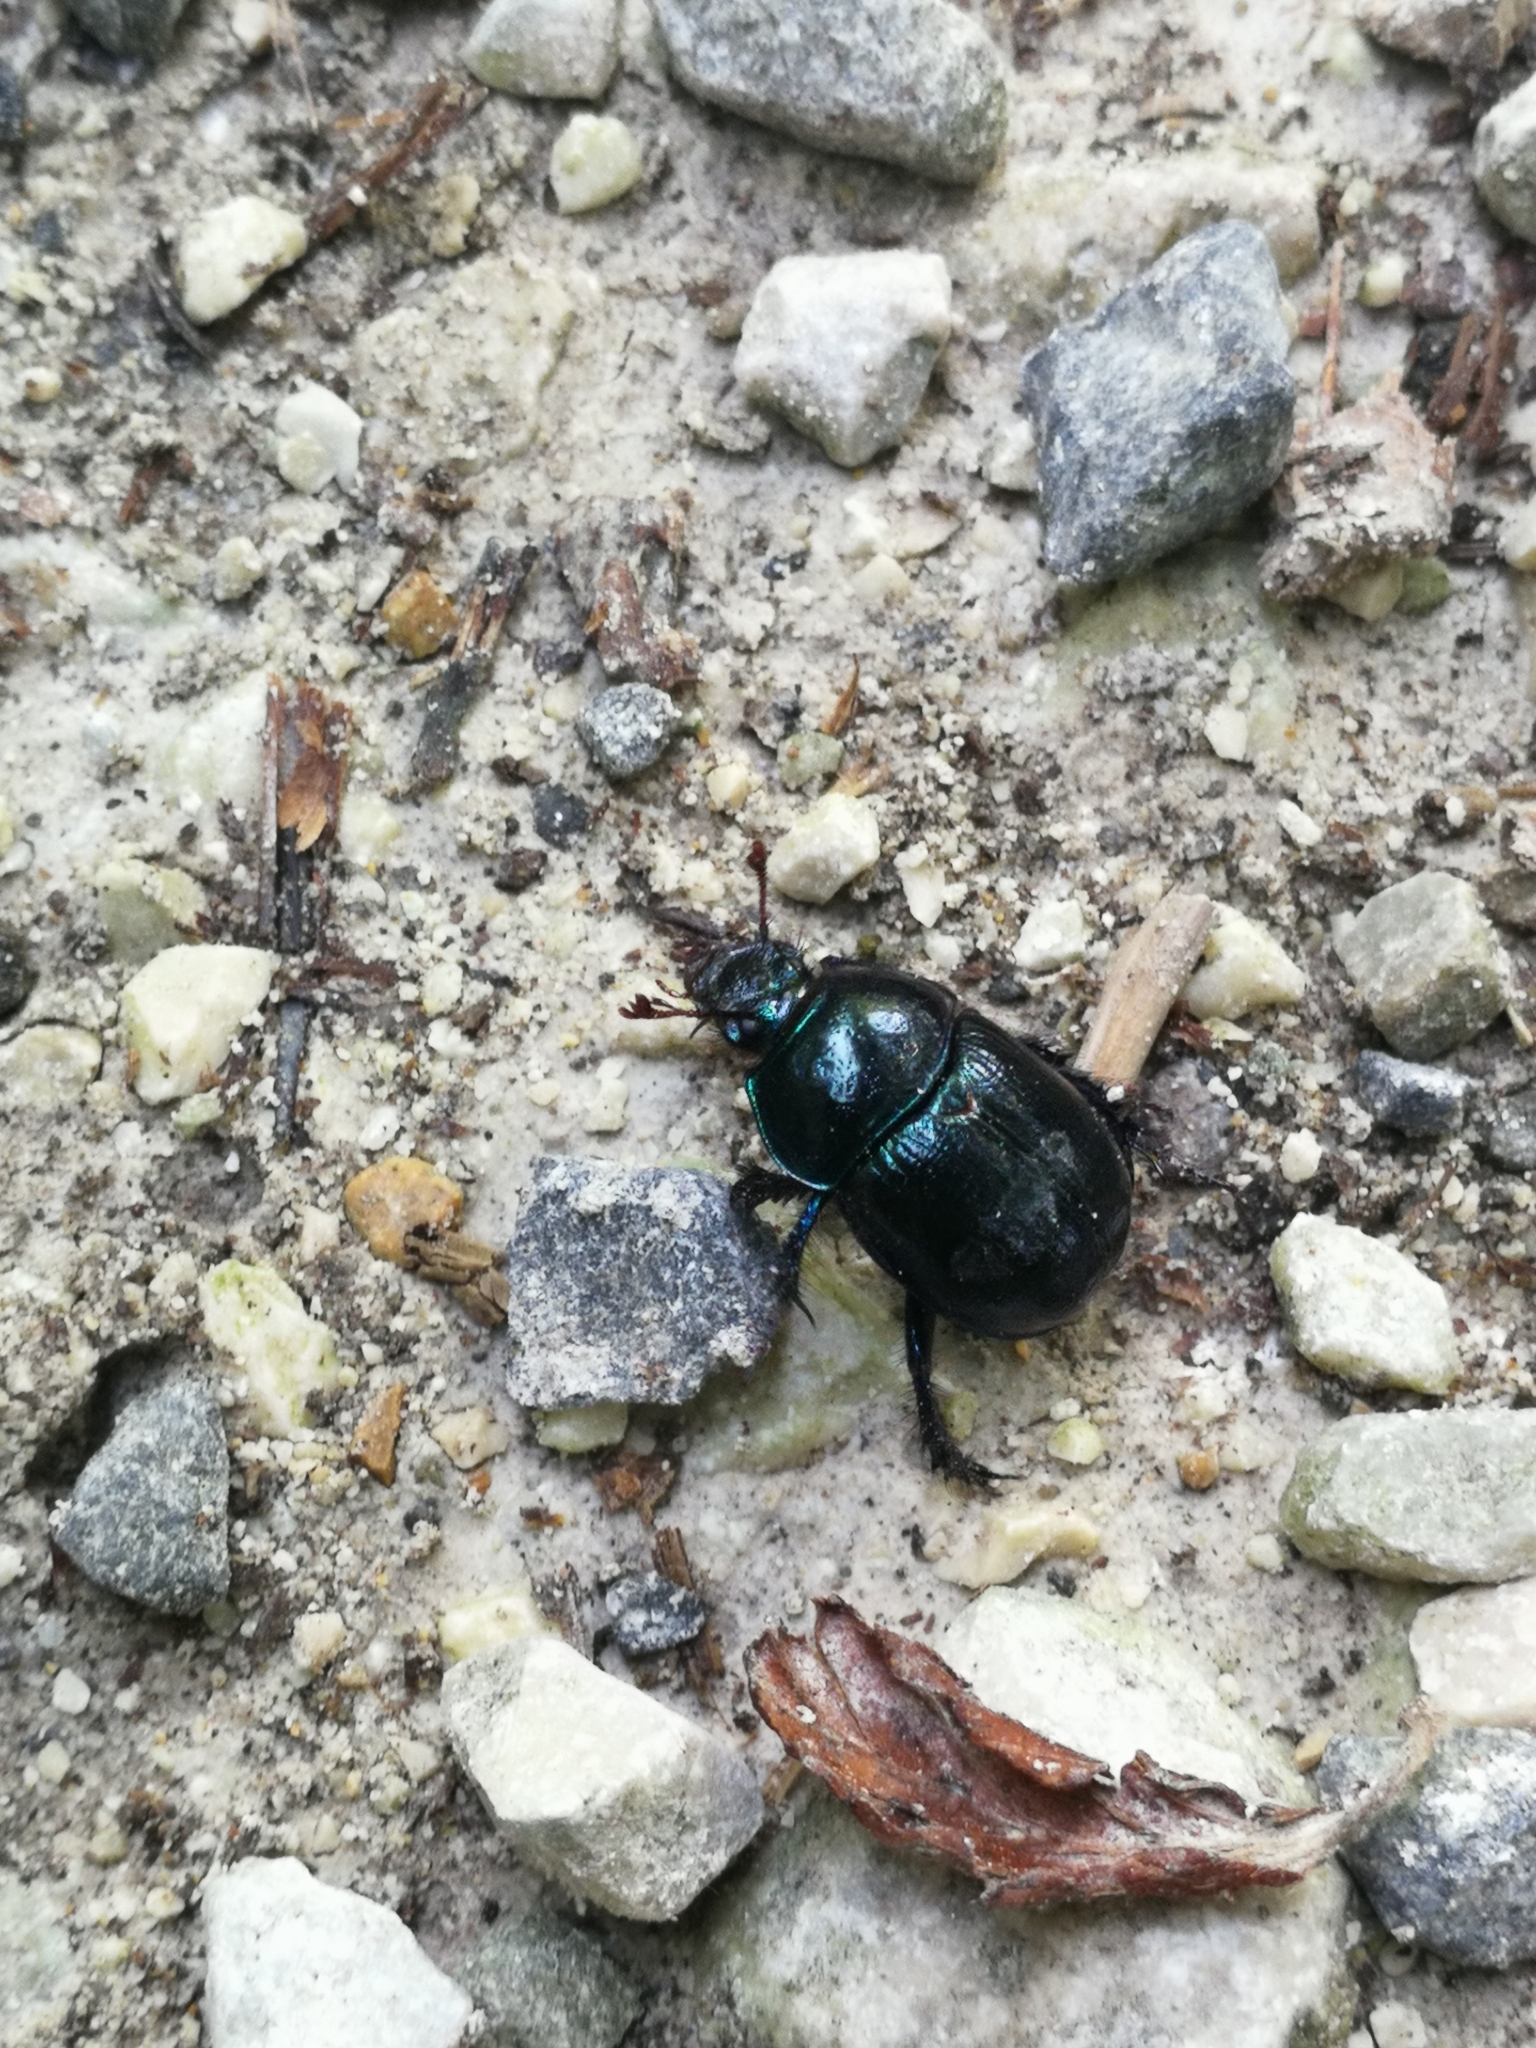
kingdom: Animalia
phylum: Arthropoda
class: Insecta
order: Coleoptera
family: Geotrupidae
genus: Anoplotrupes
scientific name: Anoplotrupes stercorosus
